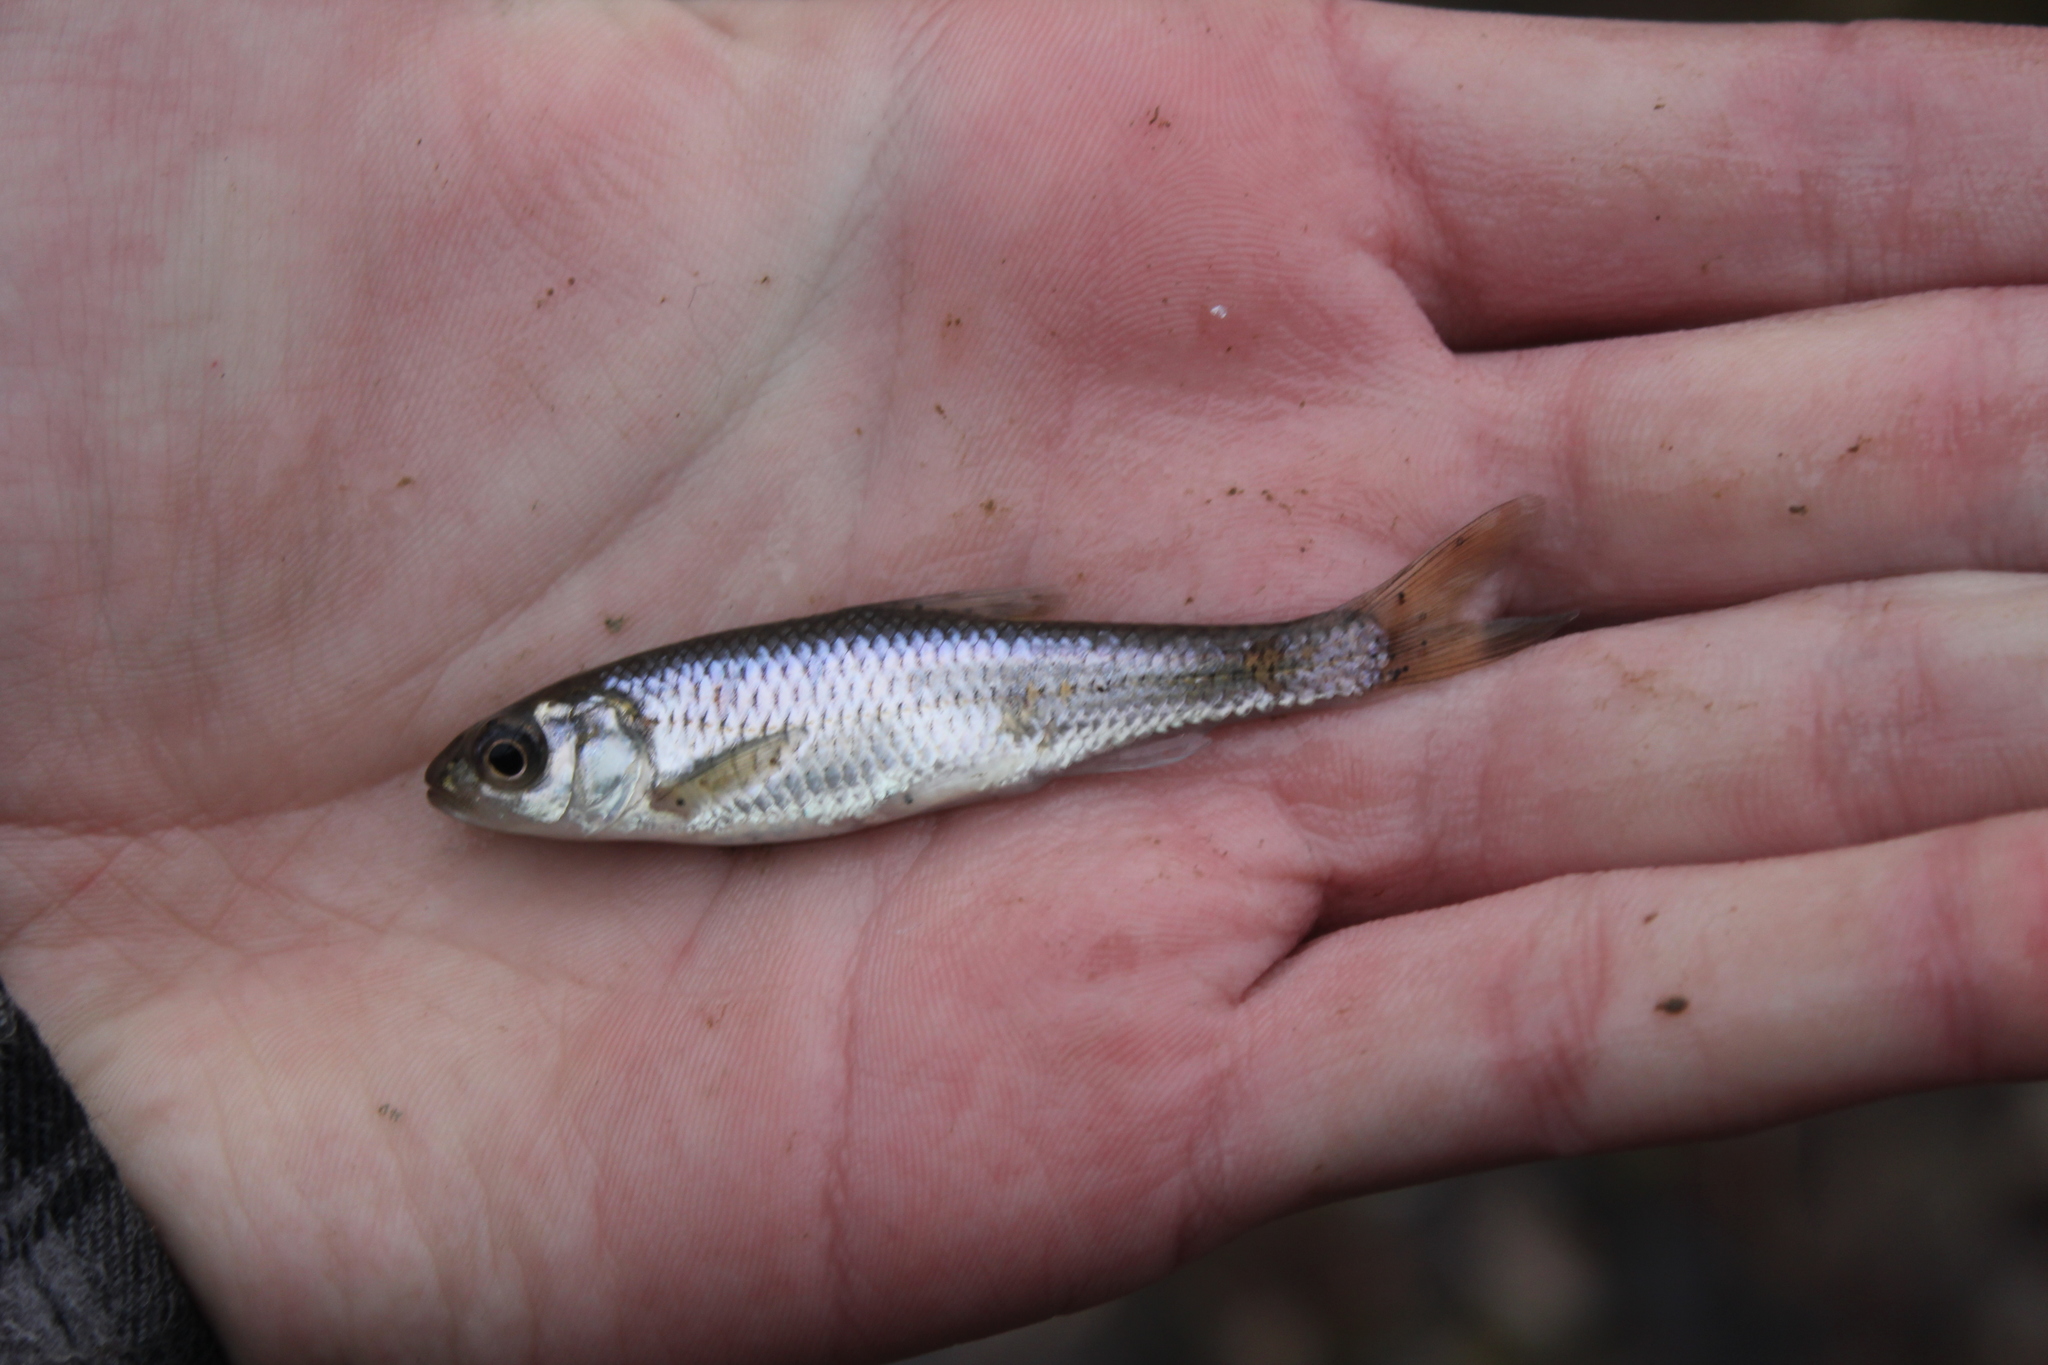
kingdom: Animalia
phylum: Chordata
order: Cypriniformes
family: Cyprinidae
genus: Luxilus
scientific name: Luxilus chrysocephalus
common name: Striped shiner
